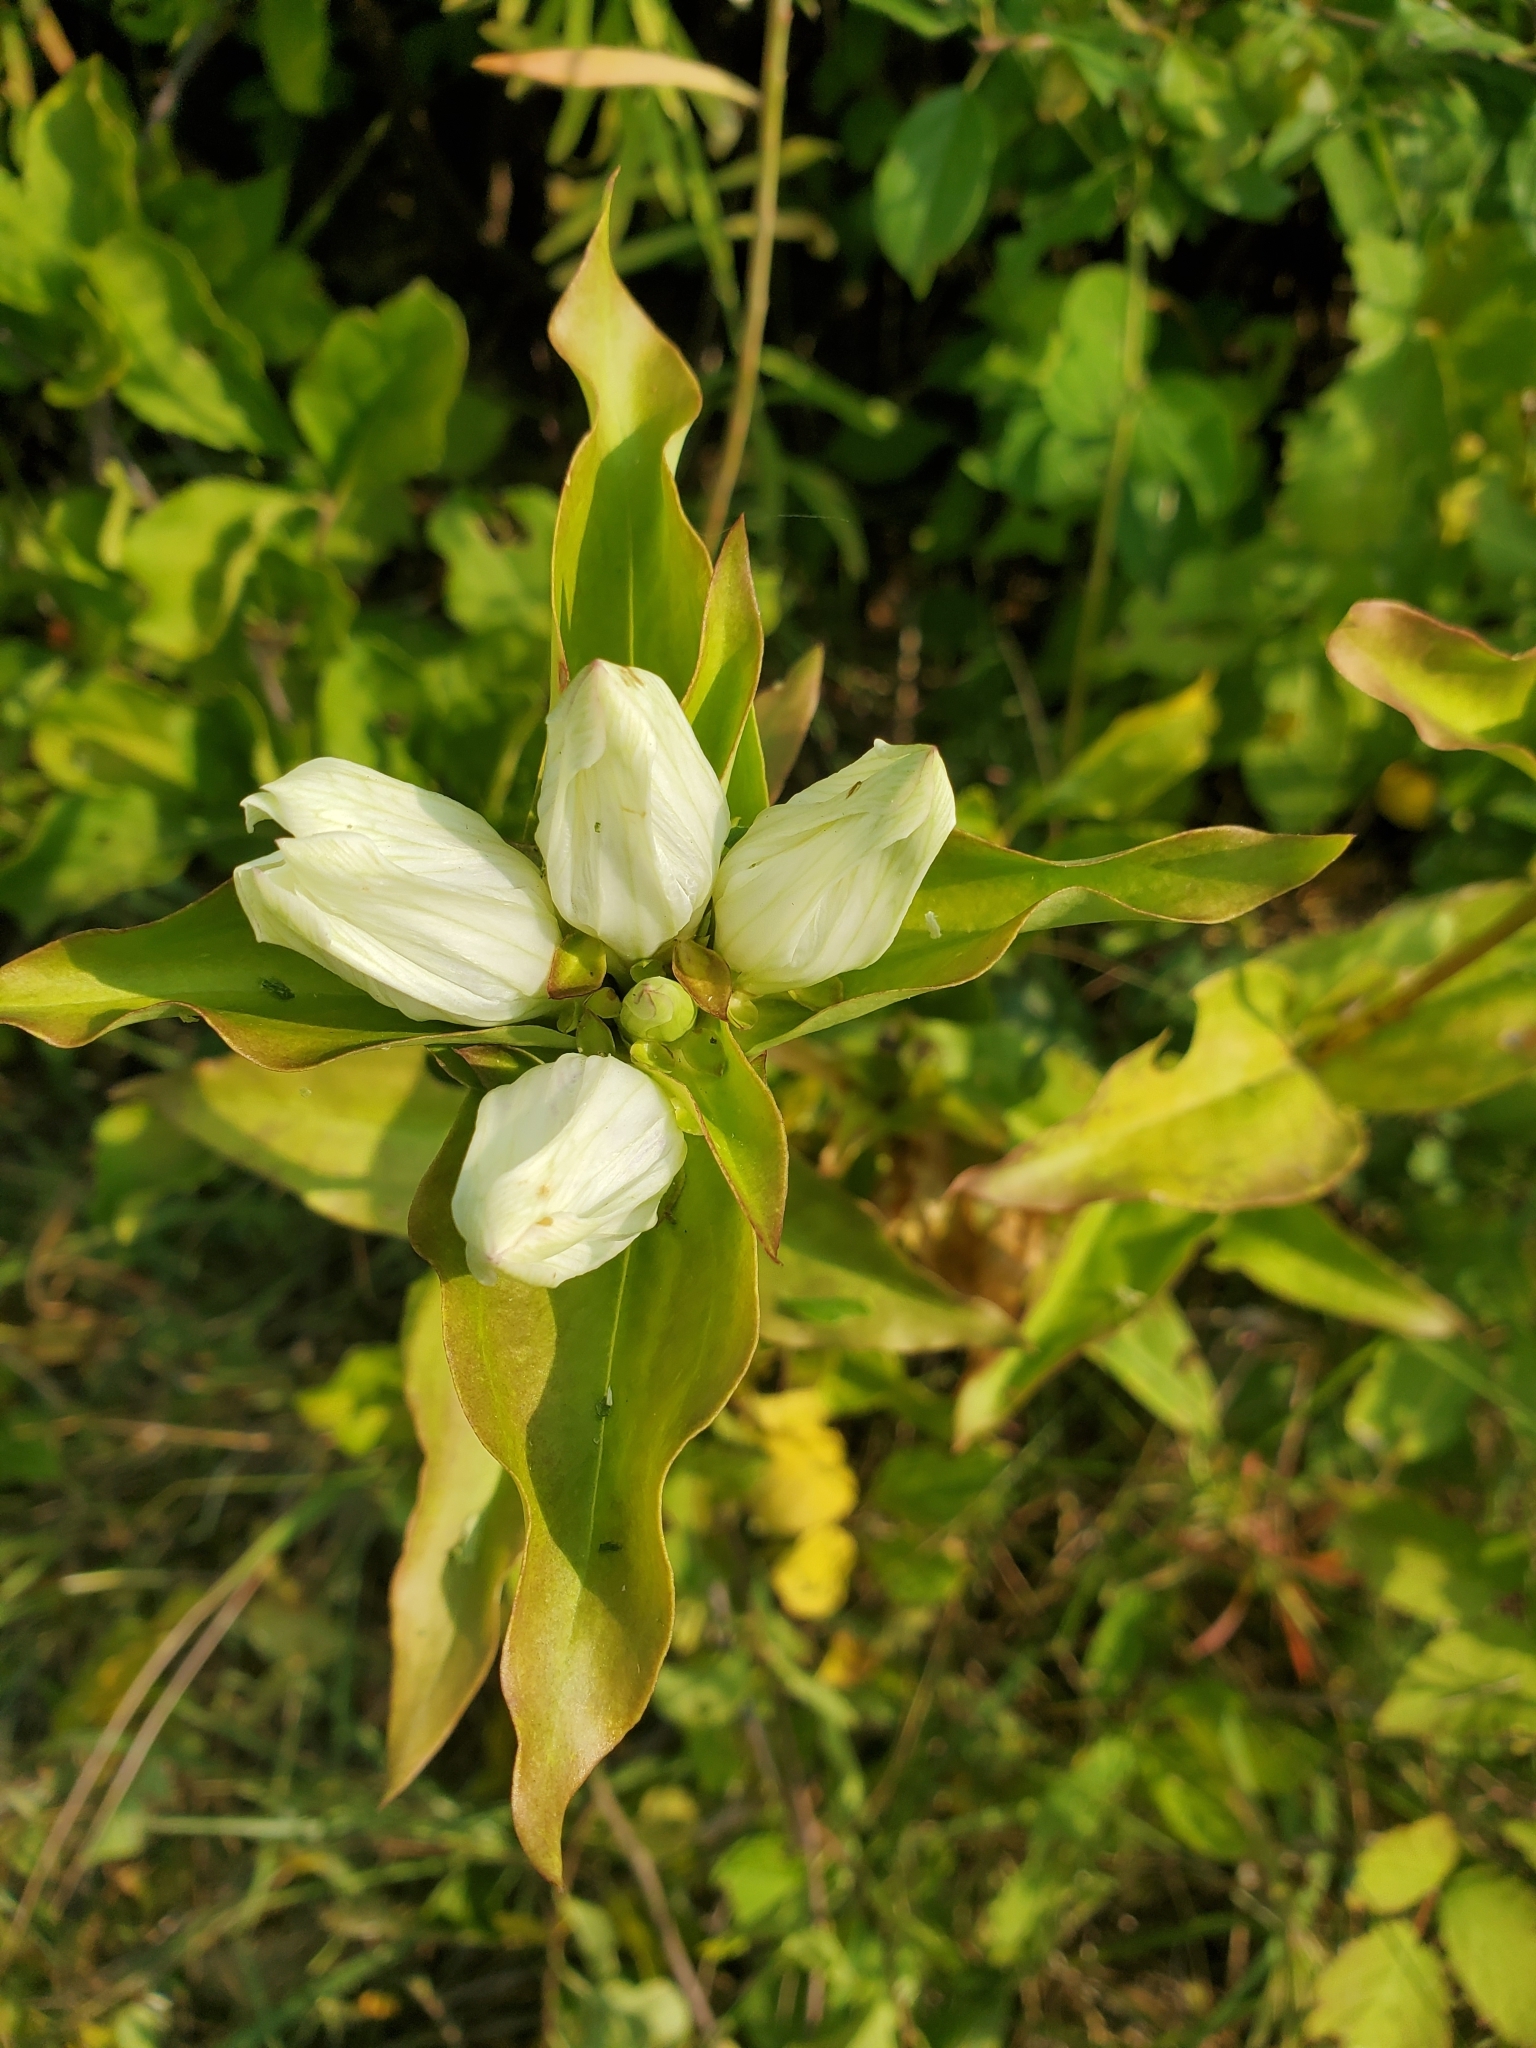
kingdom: Plantae
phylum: Tracheophyta
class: Magnoliopsida
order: Gentianales
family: Gentianaceae
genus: Gentiana
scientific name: Gentiana alba
